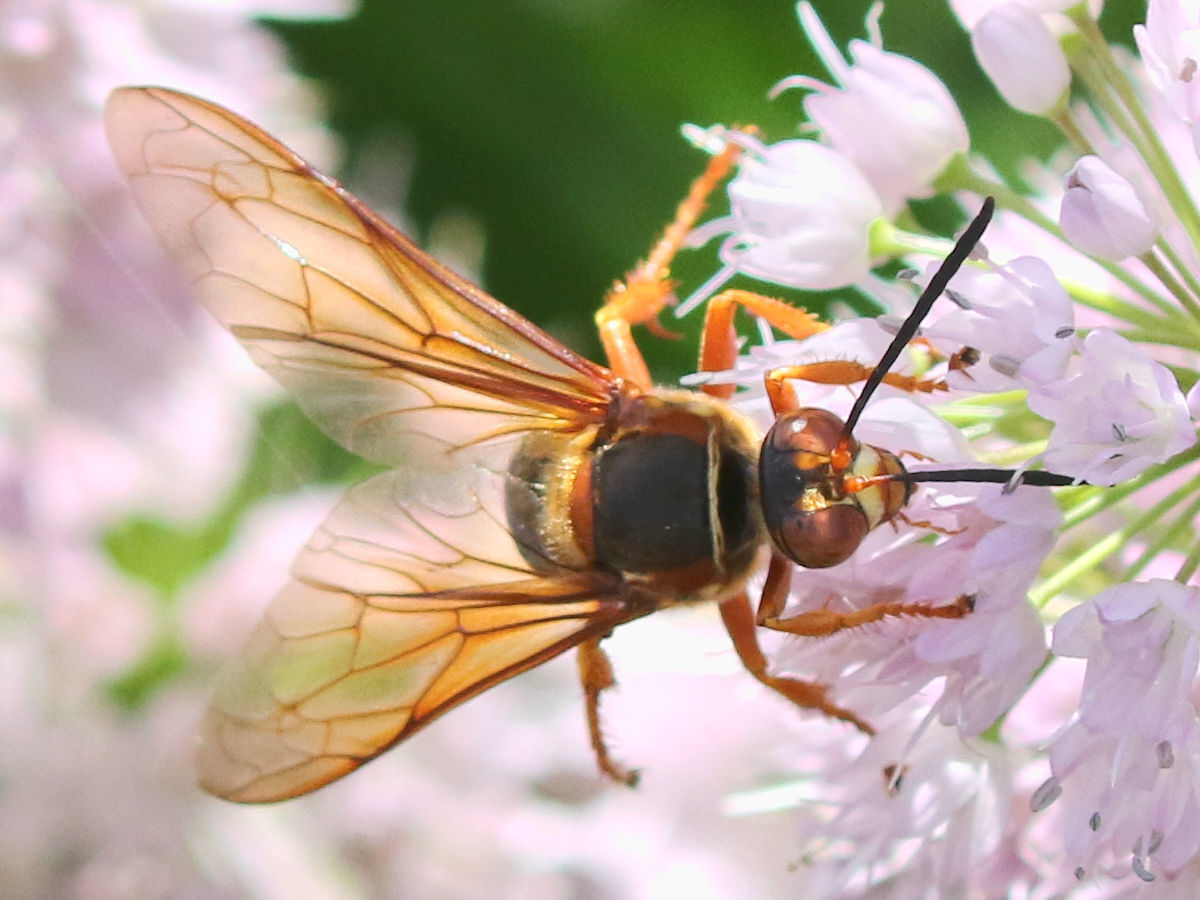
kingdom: Animalia
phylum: Arthropoda
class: Insecta
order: Hymenoptera
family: Crabronidae
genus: Sphecius
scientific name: Sphecius speciosus
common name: Cicada killer
